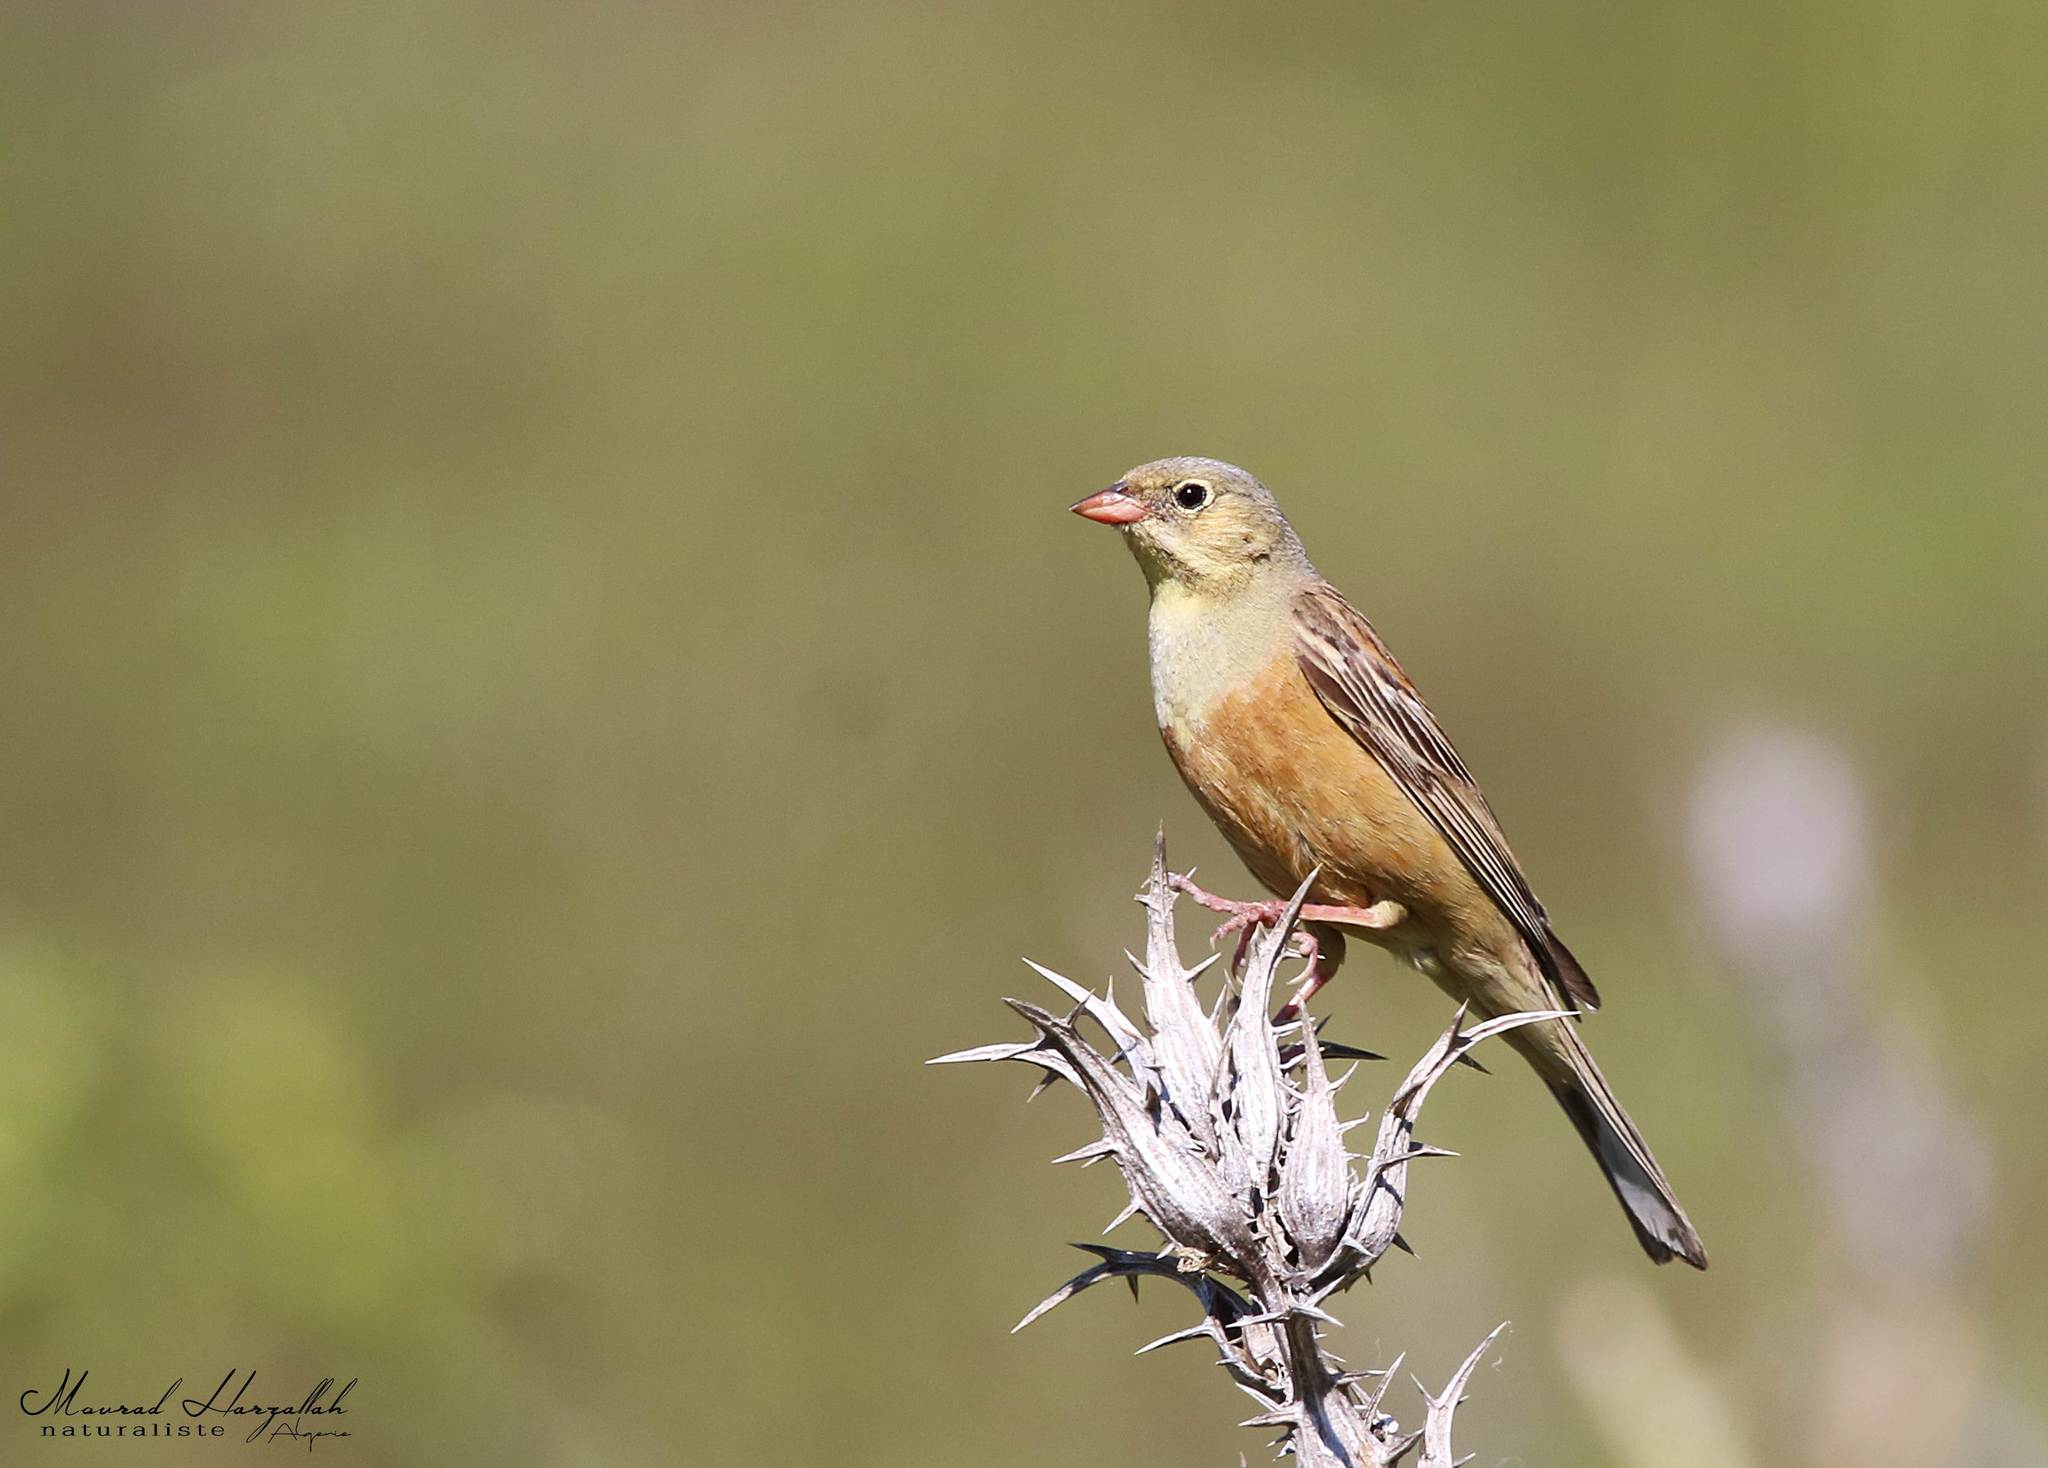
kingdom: Animalia
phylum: Chordata
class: Aves
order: Passeriformes
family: Emberizidae
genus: Emberiza
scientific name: Emberiza hortulana
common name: Ortolan bunting
